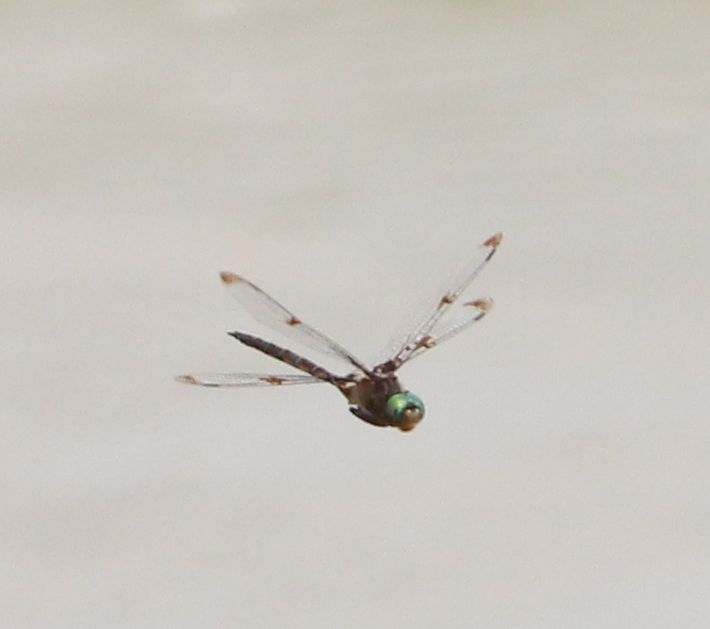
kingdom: Animalia
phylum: Arthropoda
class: Insecta
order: Odonata
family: Corduliidae
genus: Epitheca
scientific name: Epitheca princeps
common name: Prince baskettail
